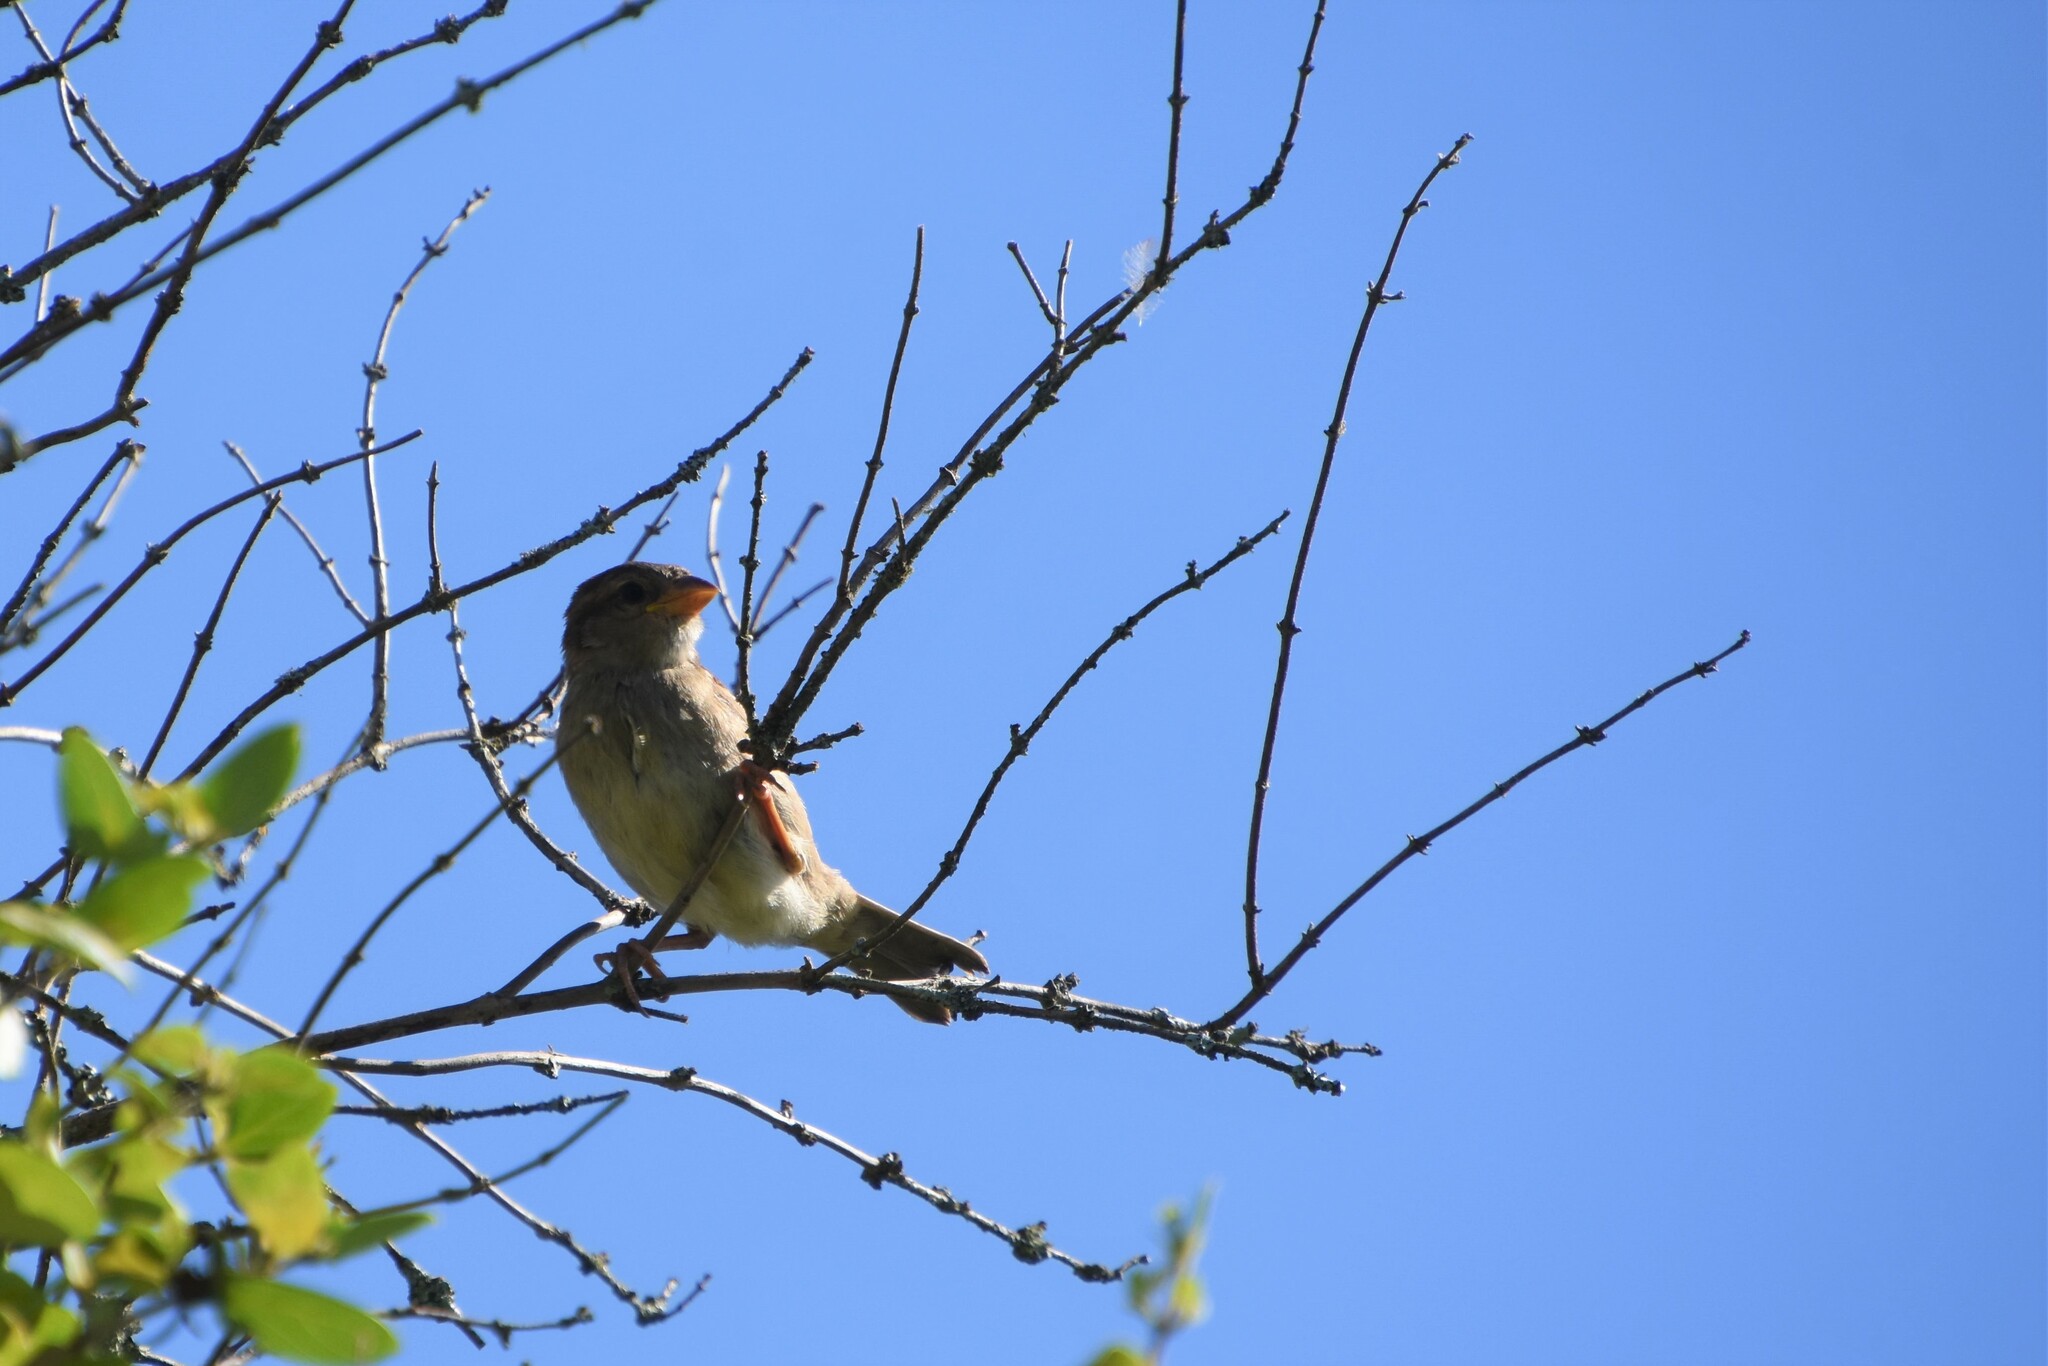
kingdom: Animalia
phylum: Chordata
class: Aves
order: Passeriformes
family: Passeridae
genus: Passer
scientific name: Passer domesticus
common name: House sparrow
